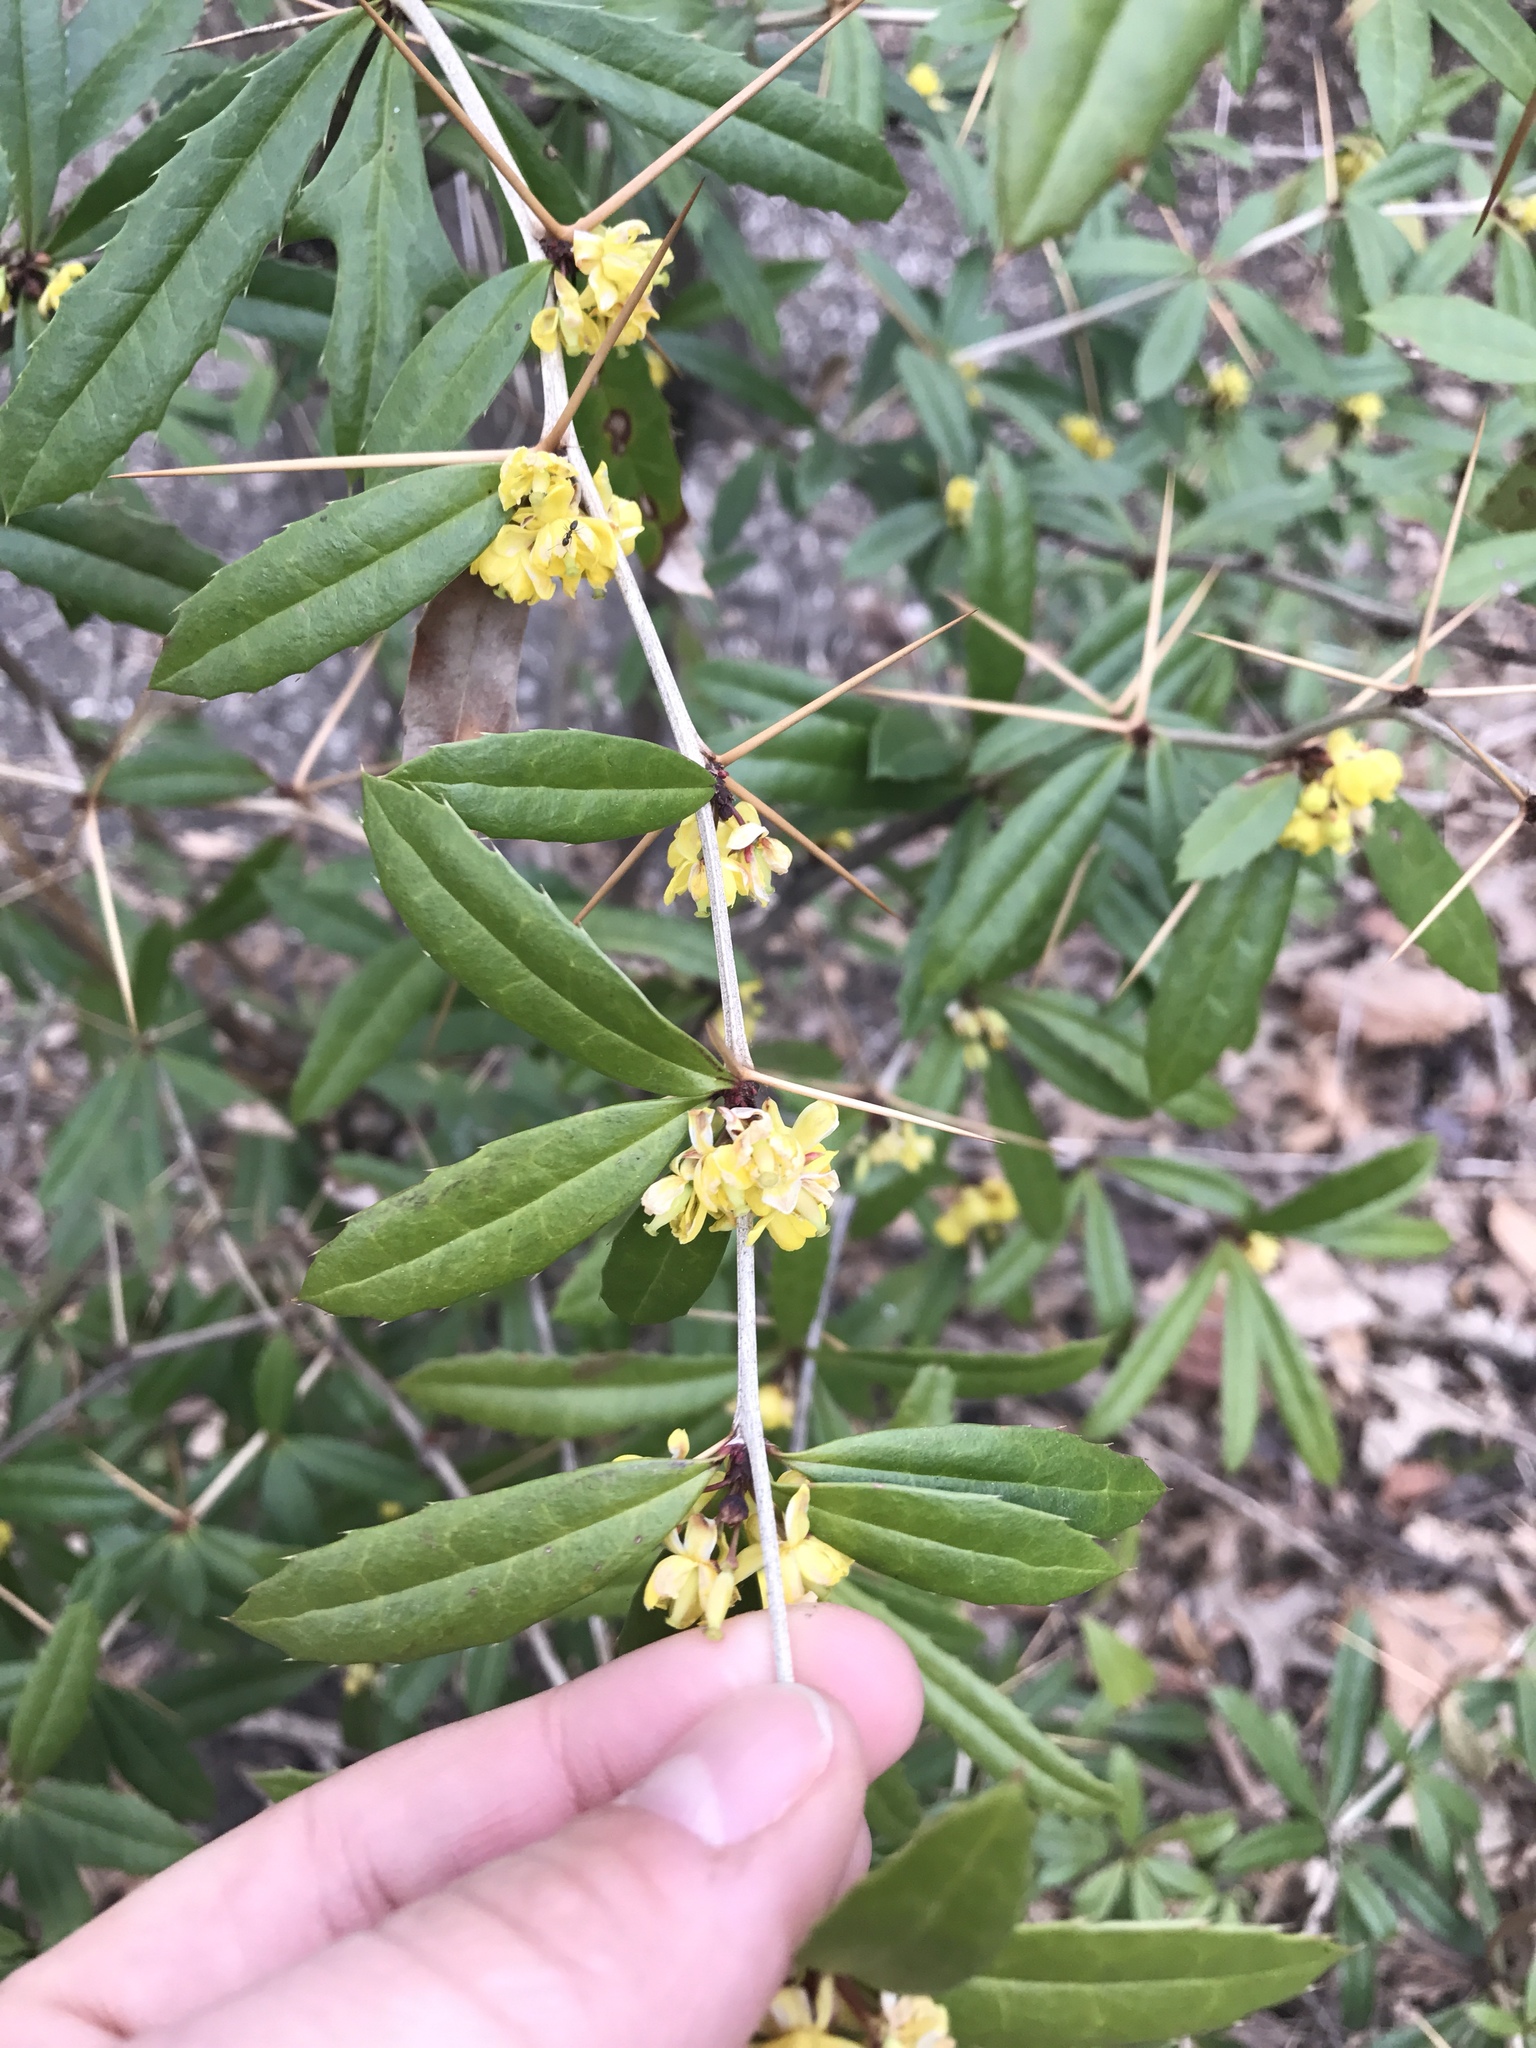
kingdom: Plantae
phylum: Tracheophyta
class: Magnoliopsida
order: Ranunculales
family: Berberidaceae
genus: Berberis
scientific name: Berberis julianae
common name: Wintergreen barberry
